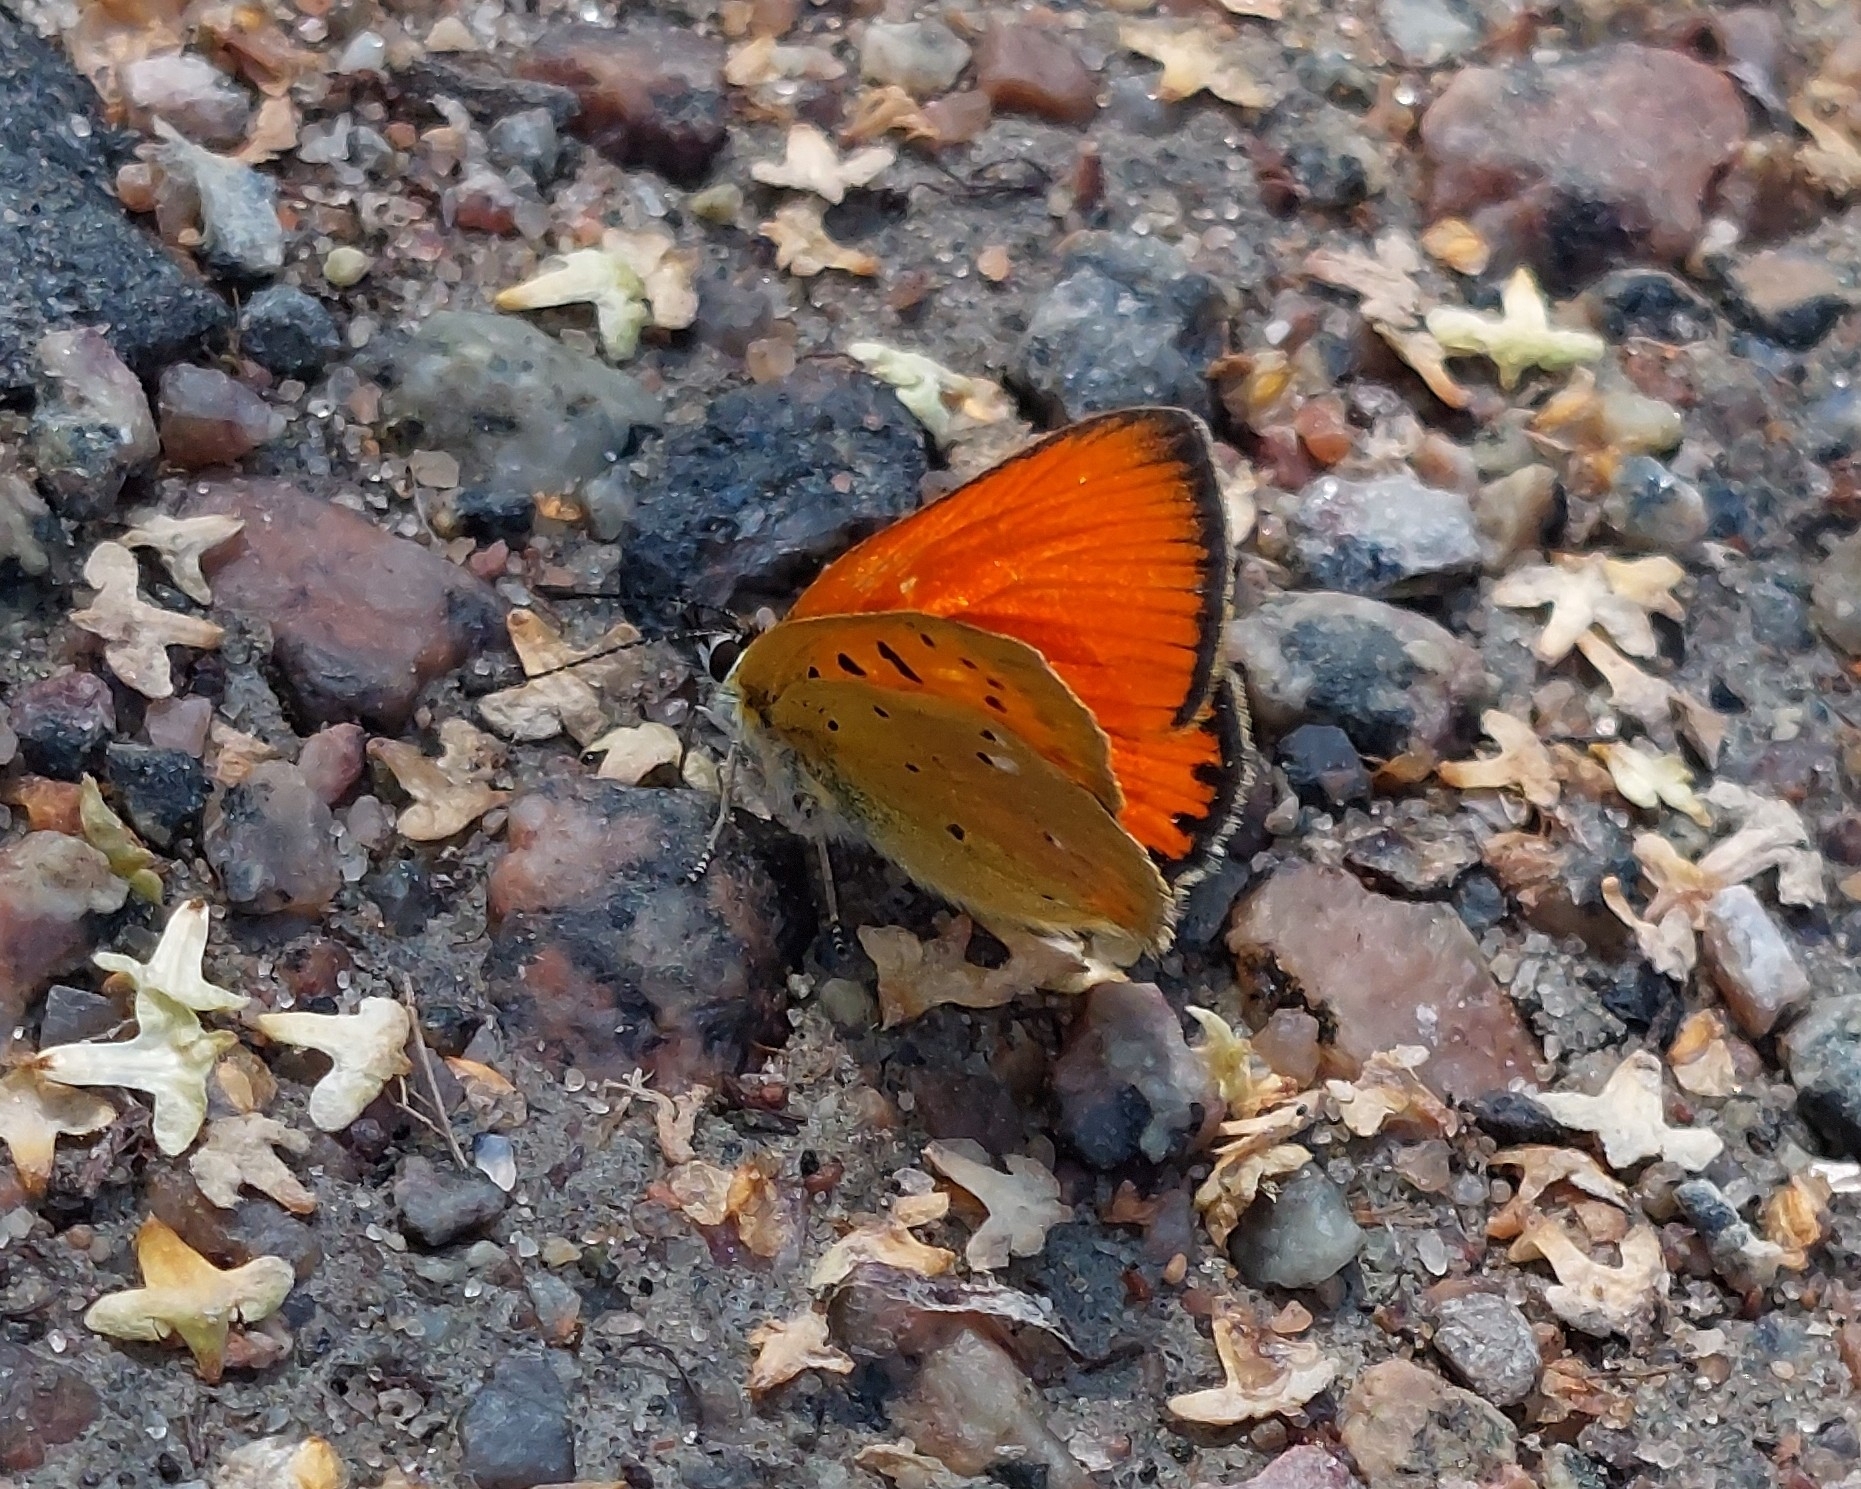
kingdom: Animalia
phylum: Arthropoda
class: Insecta
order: Lepidoptera
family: Lycaenidae
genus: Lycaena
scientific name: Lycaena virgaureae
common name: Scarce copper
